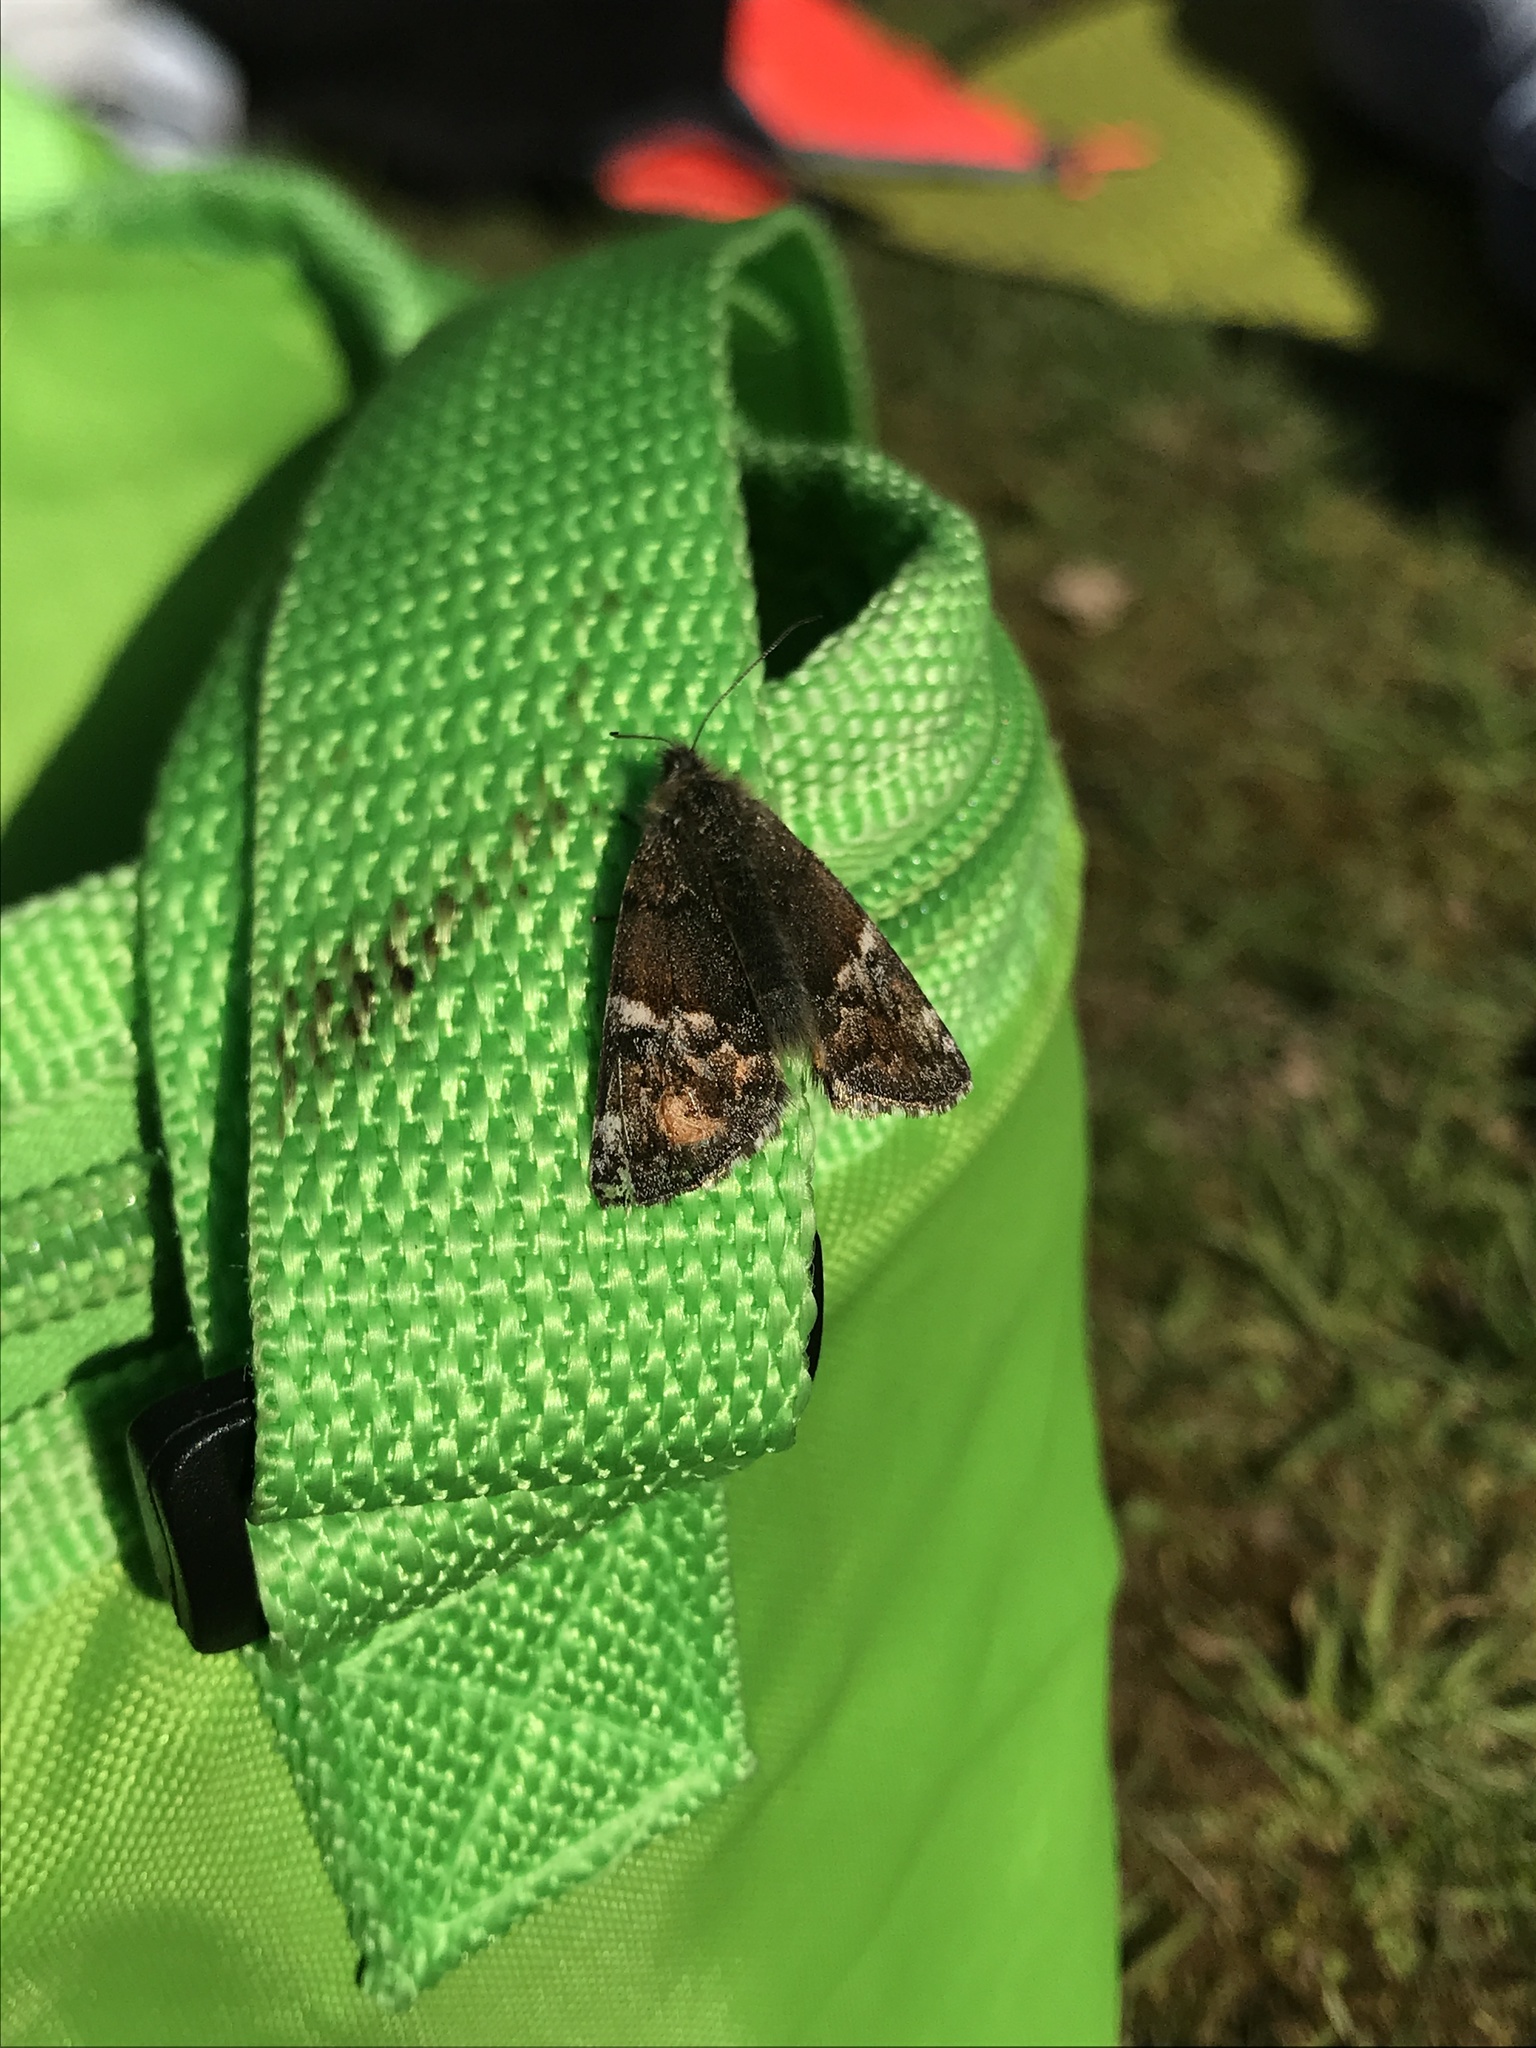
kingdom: Animalia
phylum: Arthropoda
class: Insecta
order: Lepidoptera
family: Geometridae
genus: Archiearis
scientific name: Archiearis parthenias
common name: Orange underwing
